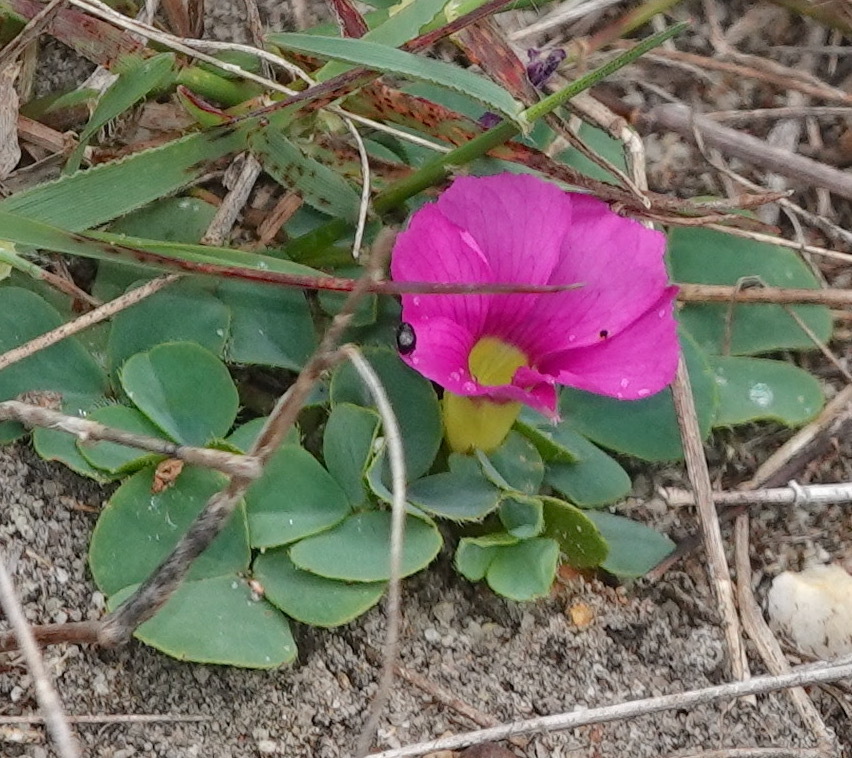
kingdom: Plantae
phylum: Tracheophyta
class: Magnoliopsida
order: Oxalidales
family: Oxalidaceae
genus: Oxalis
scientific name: Oxalis purpurea
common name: Purple woodsorrel
